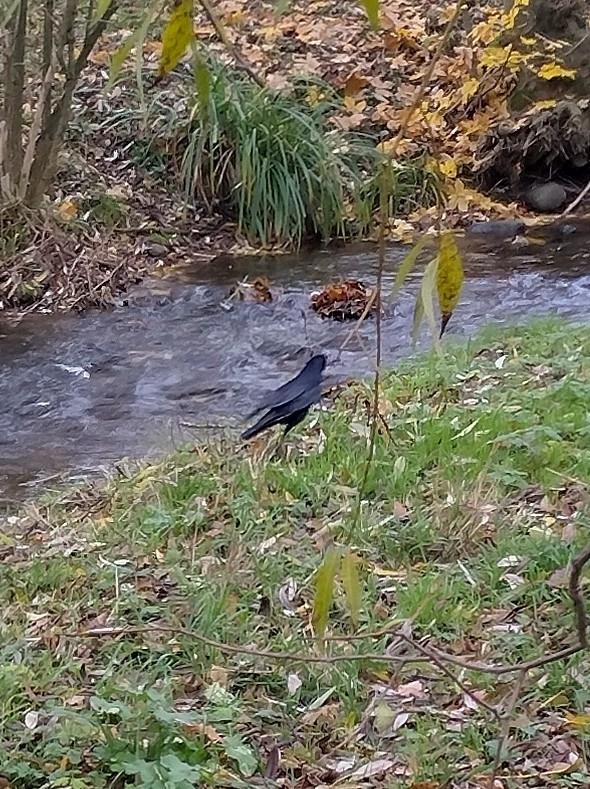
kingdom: Animalia
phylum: Chordata
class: Aves
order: Passeriformes
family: Corvidae
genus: Corvus
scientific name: Corvus frugilegus
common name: Rook
